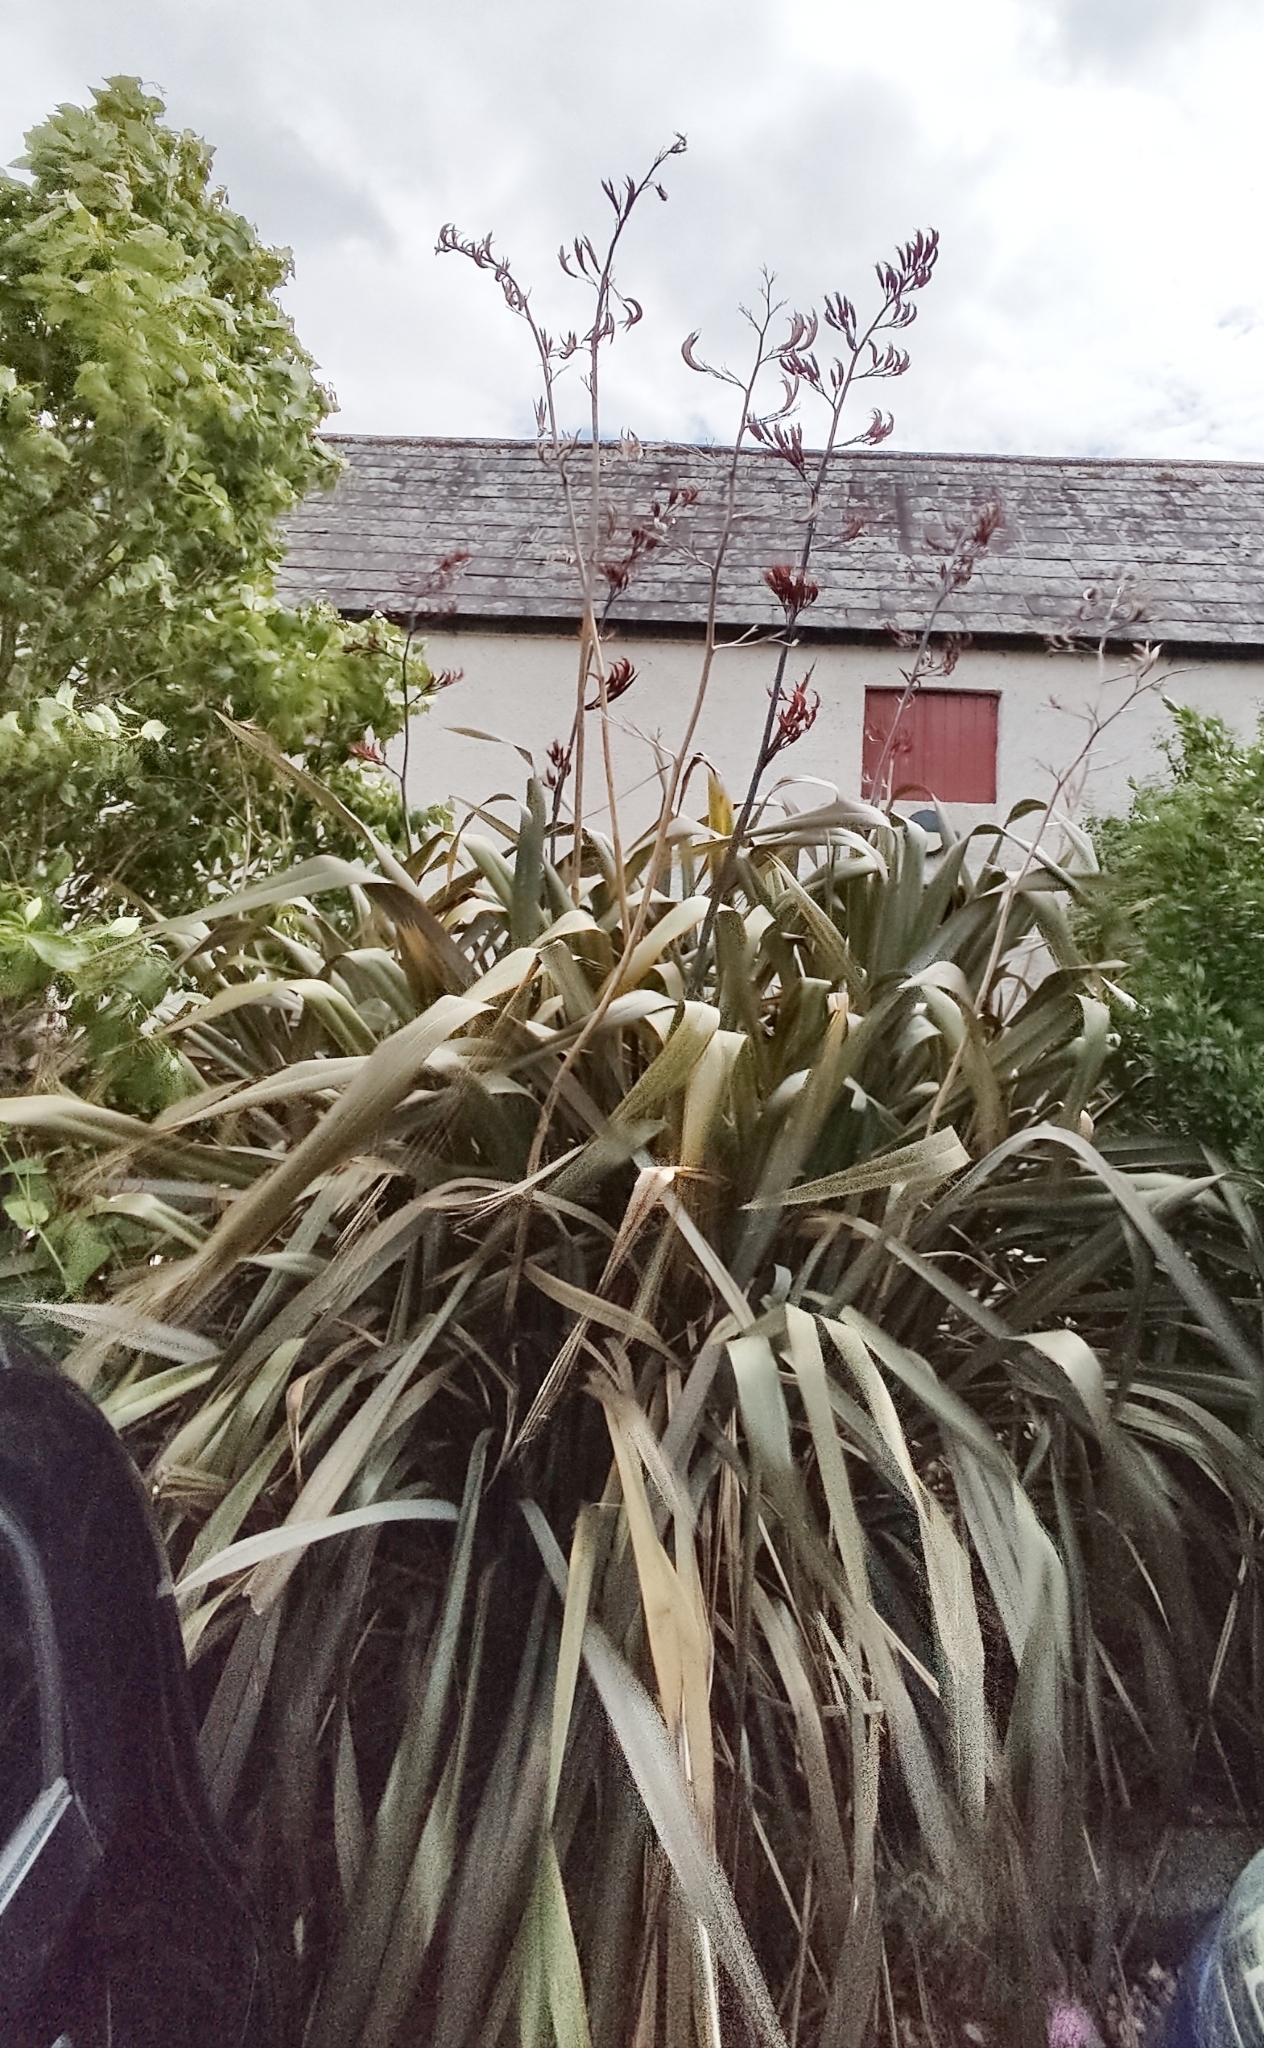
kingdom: Plantae
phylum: Tracheophyta
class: Liliopsida
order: Asparagales
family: Asphodelaceae
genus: Phormium
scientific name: Phormium tenax
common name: New zealand flax
